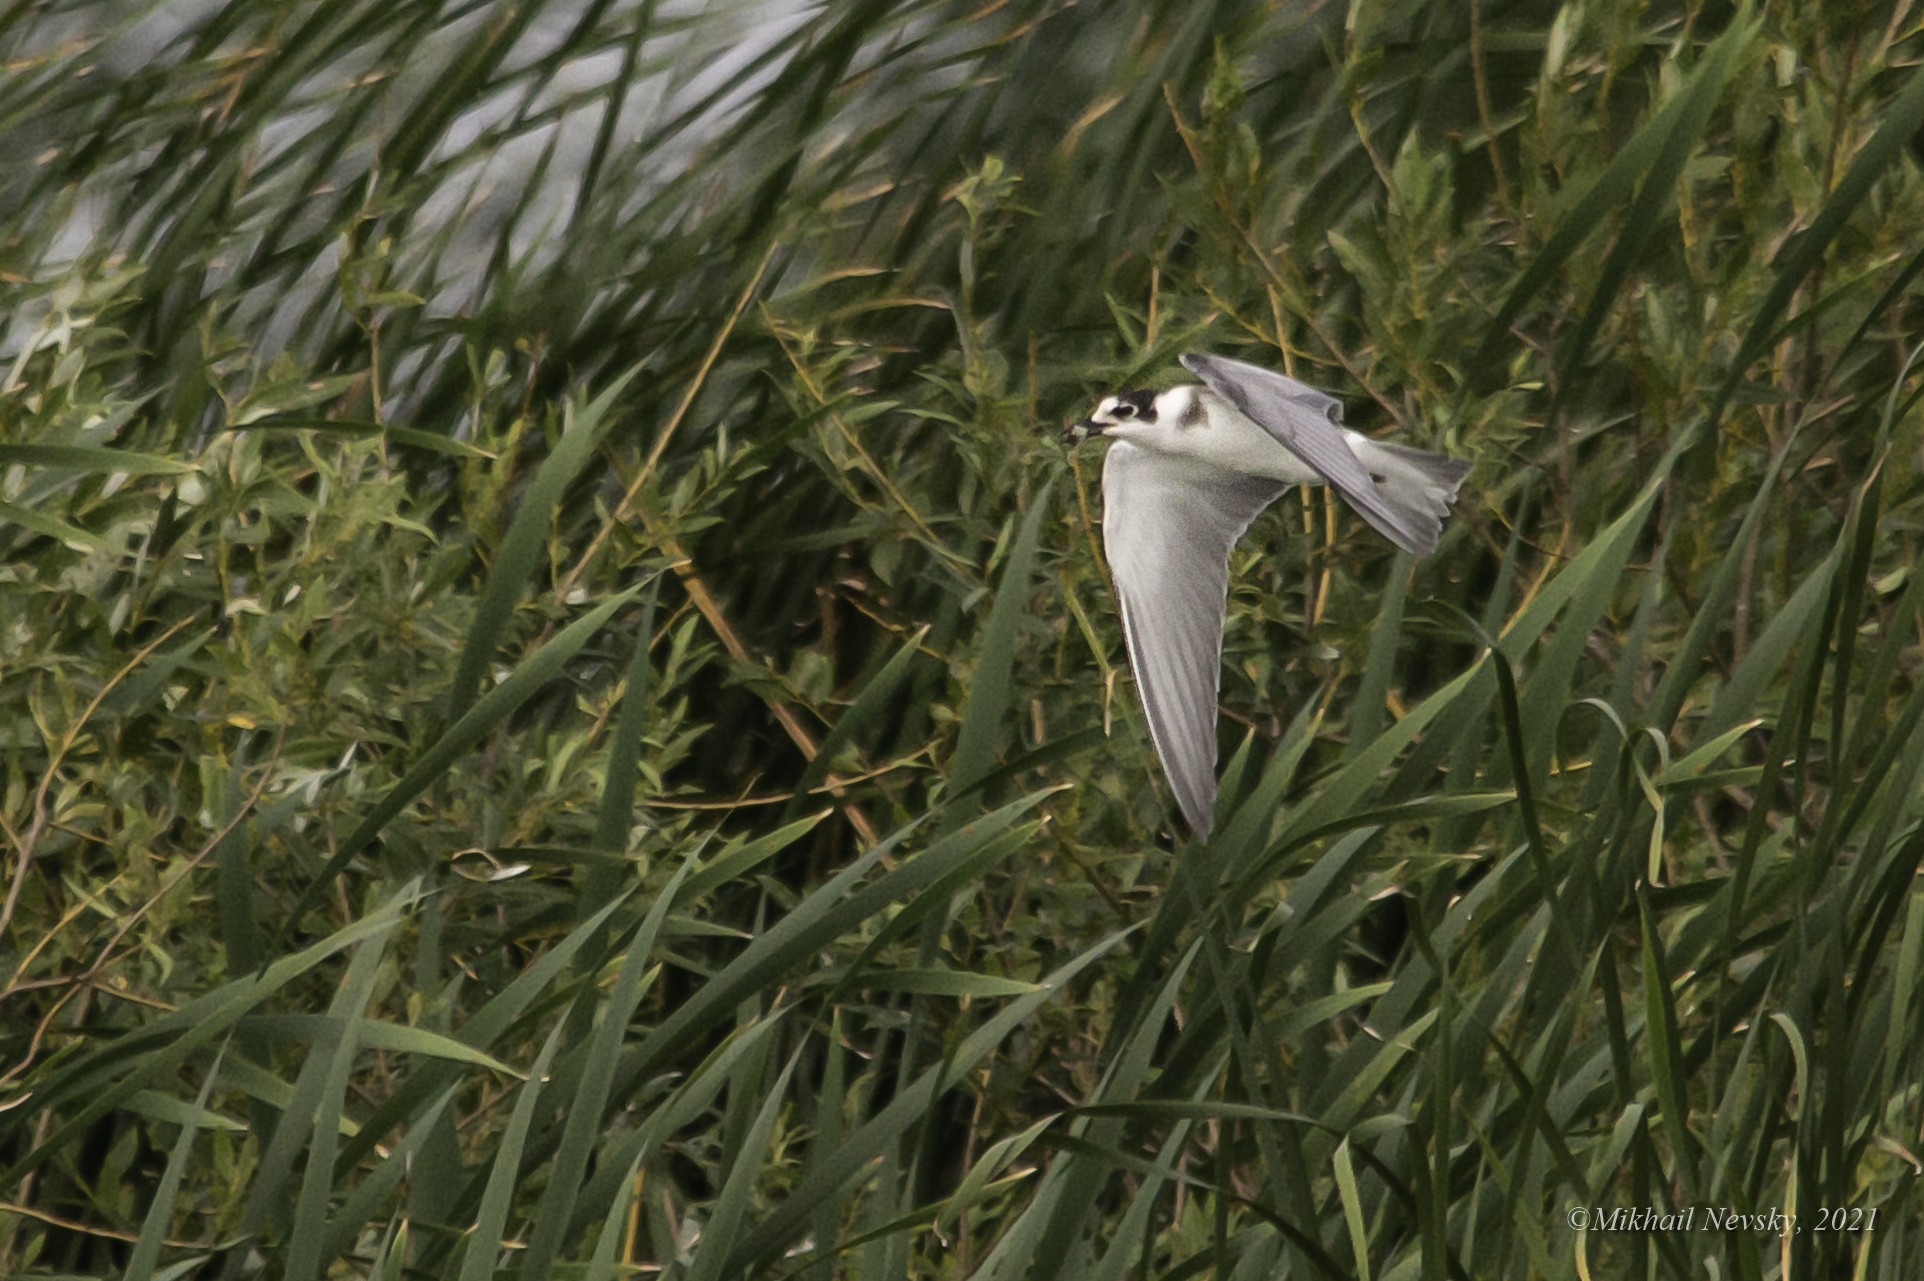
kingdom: Animalia
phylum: Chordata
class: Aves
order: Charadriiformes
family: Laridae
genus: Chlidonias
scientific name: Chlidonias niger
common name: Black tern
